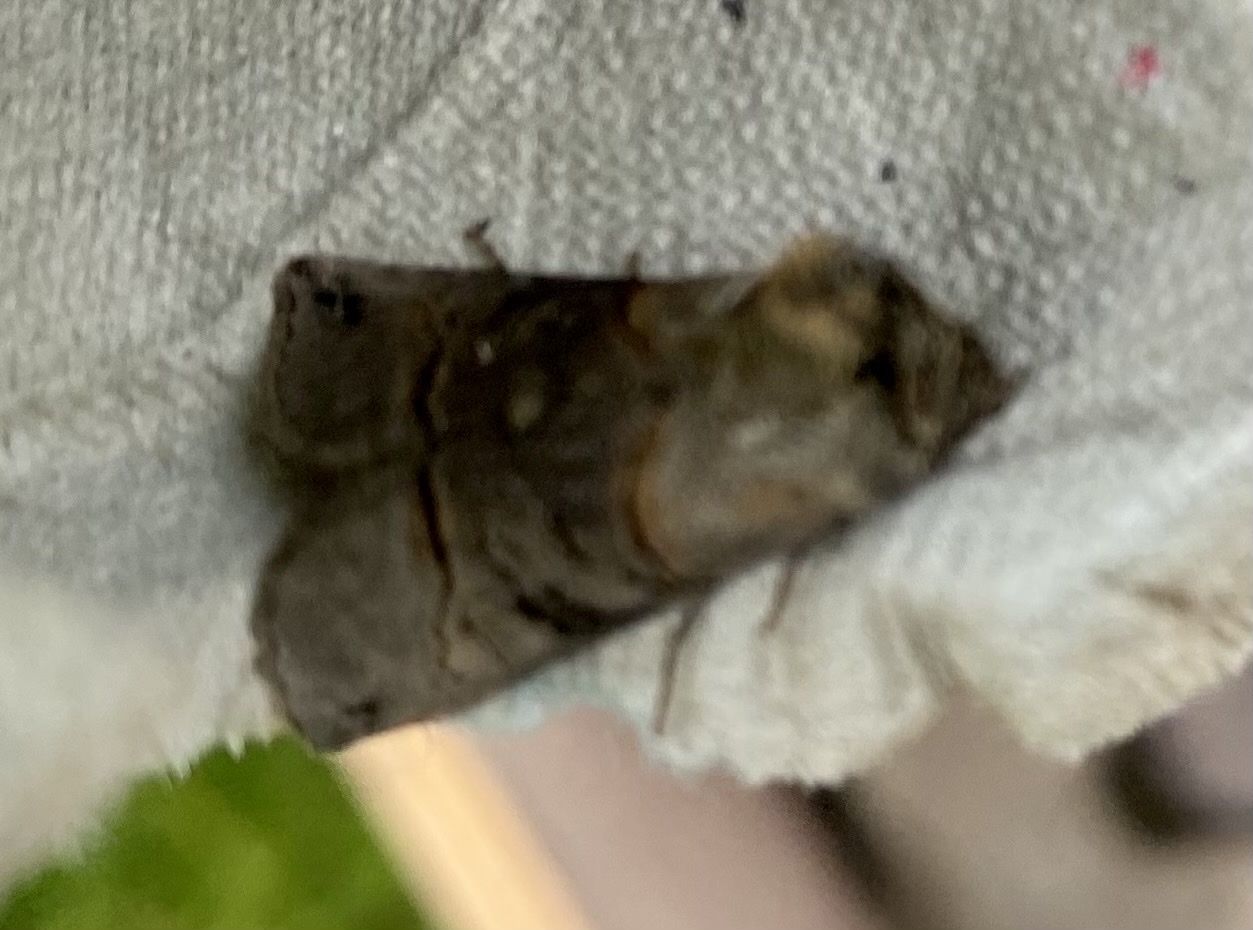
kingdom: Animalia
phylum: Arthropoda
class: Insecta
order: Lepidoptera
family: Noctuidae
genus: Abrostola
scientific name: Abrostola tripartita
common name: Spectacle
